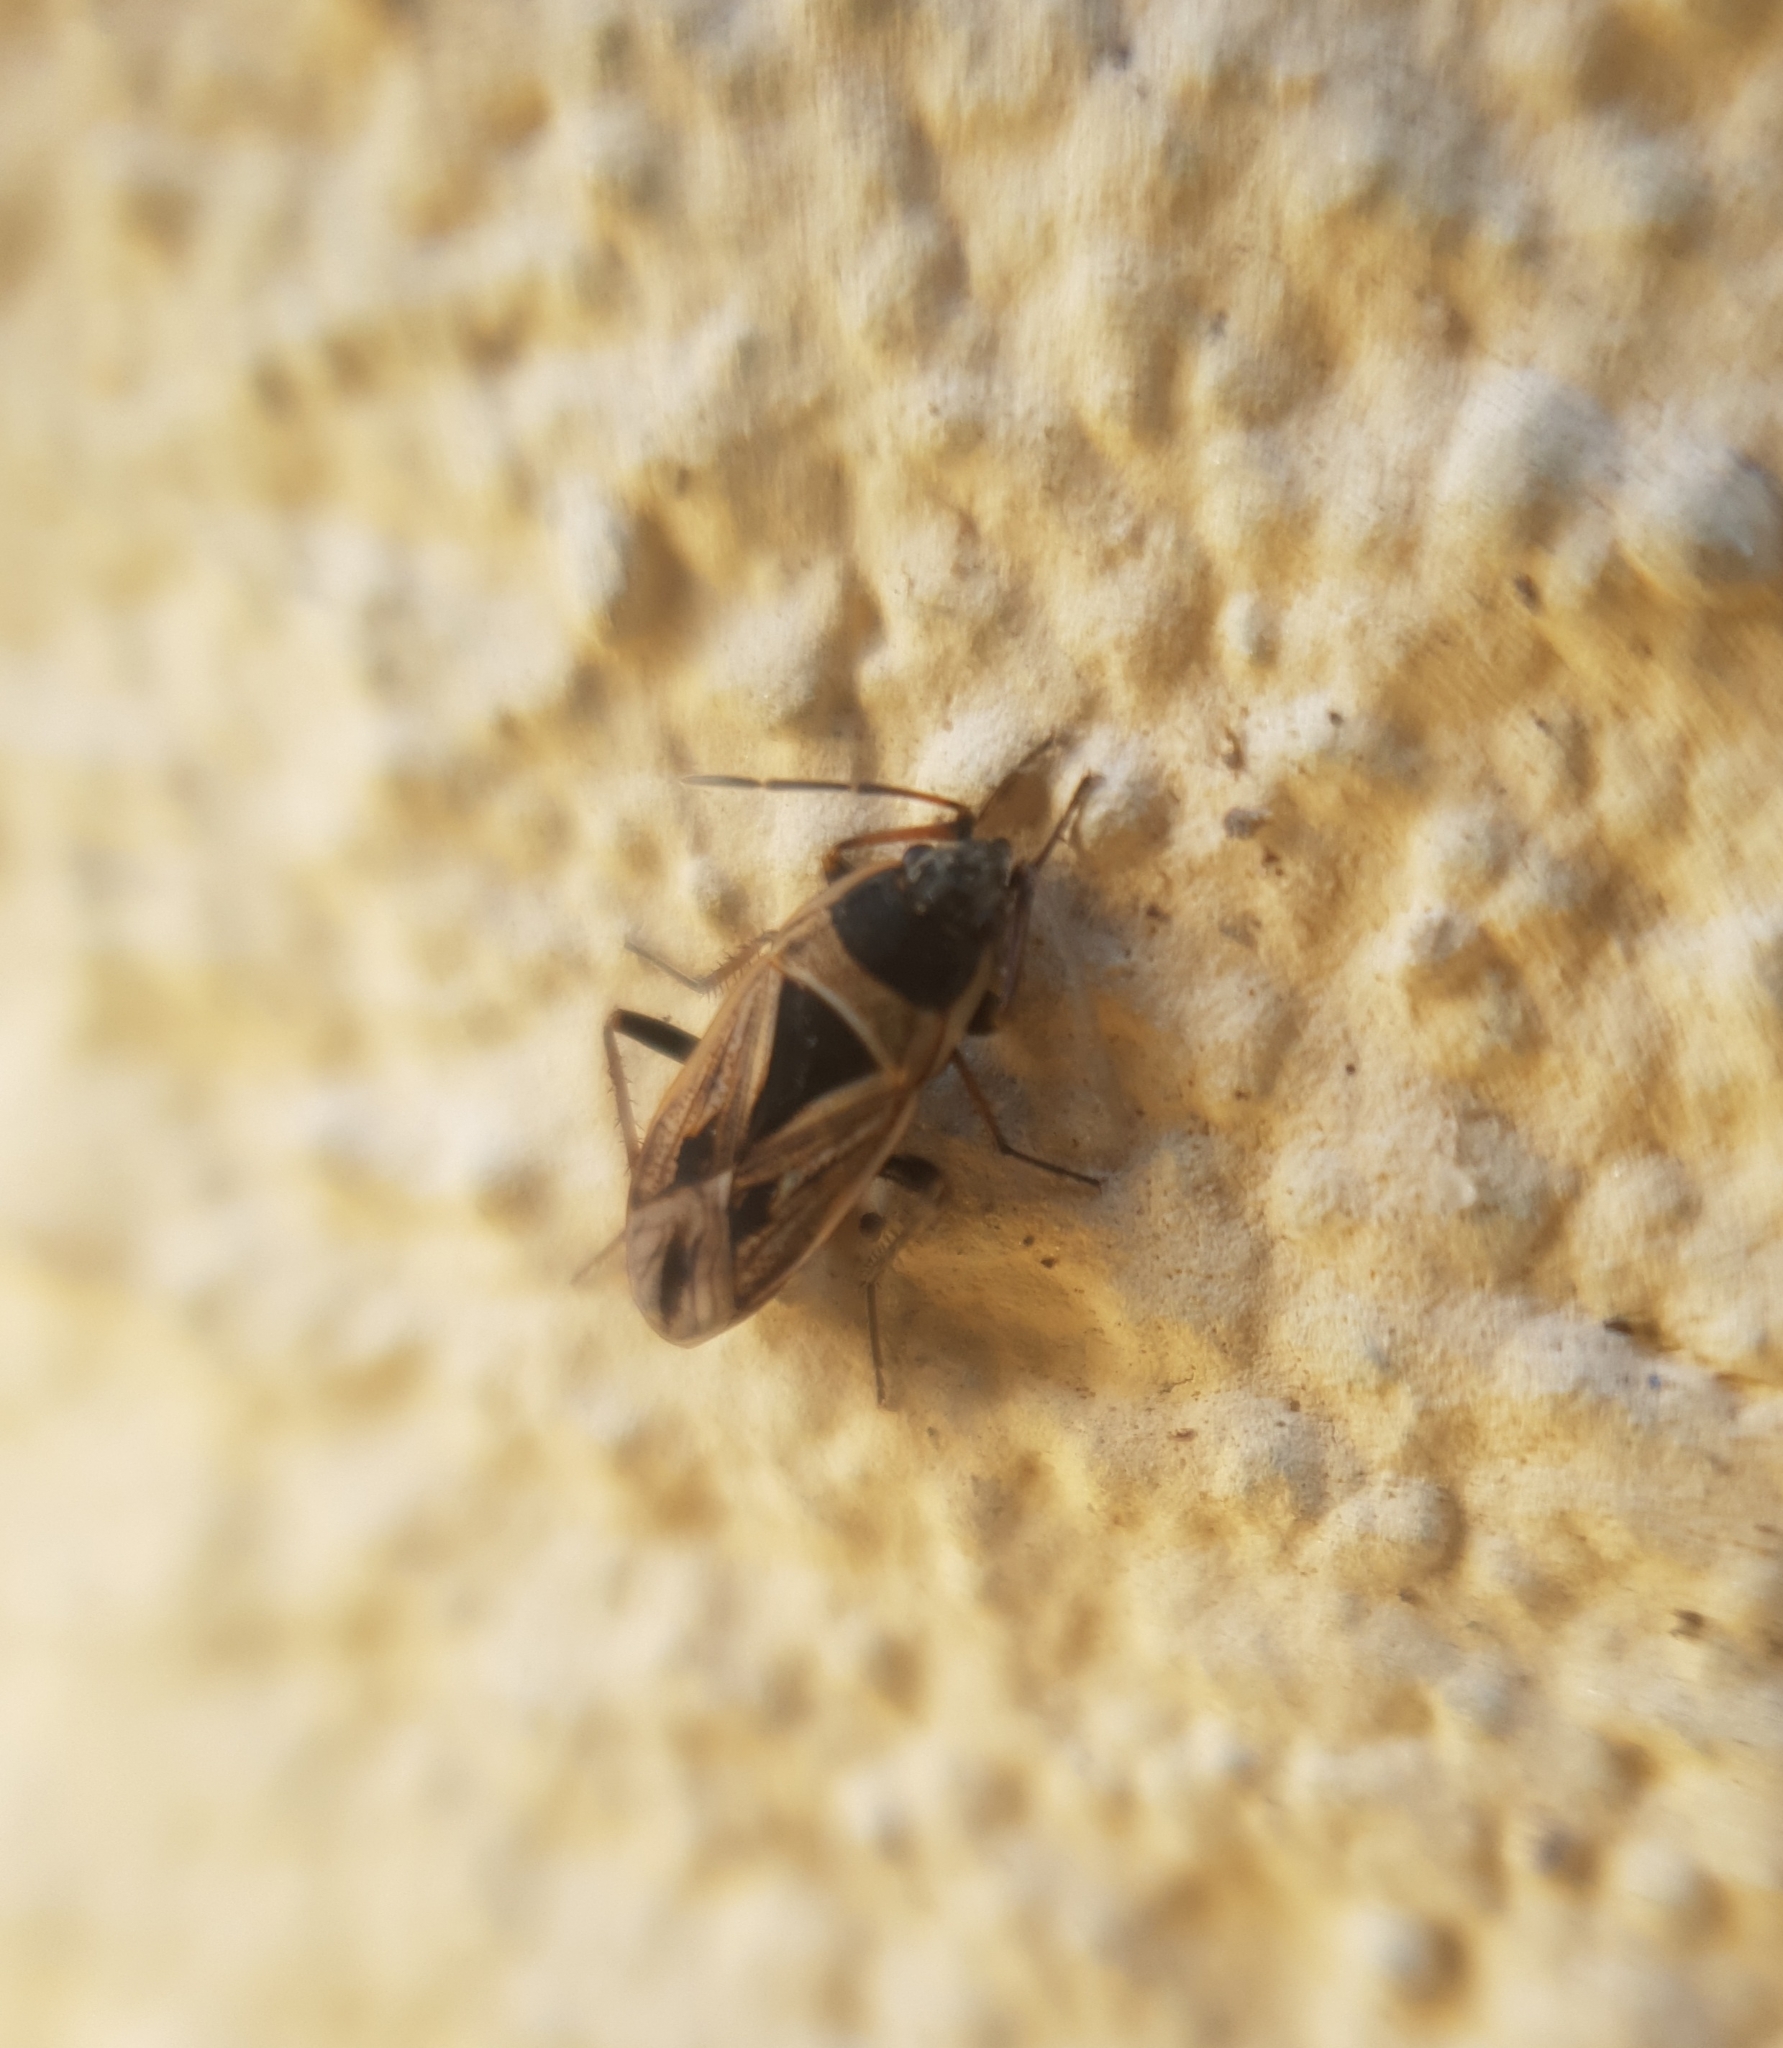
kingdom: Animalia
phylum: Arthropoda
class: Insecta
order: Hemiptera
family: Rhyparochromidae
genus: Xanthochilus
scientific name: Xanthochilus quadratus
